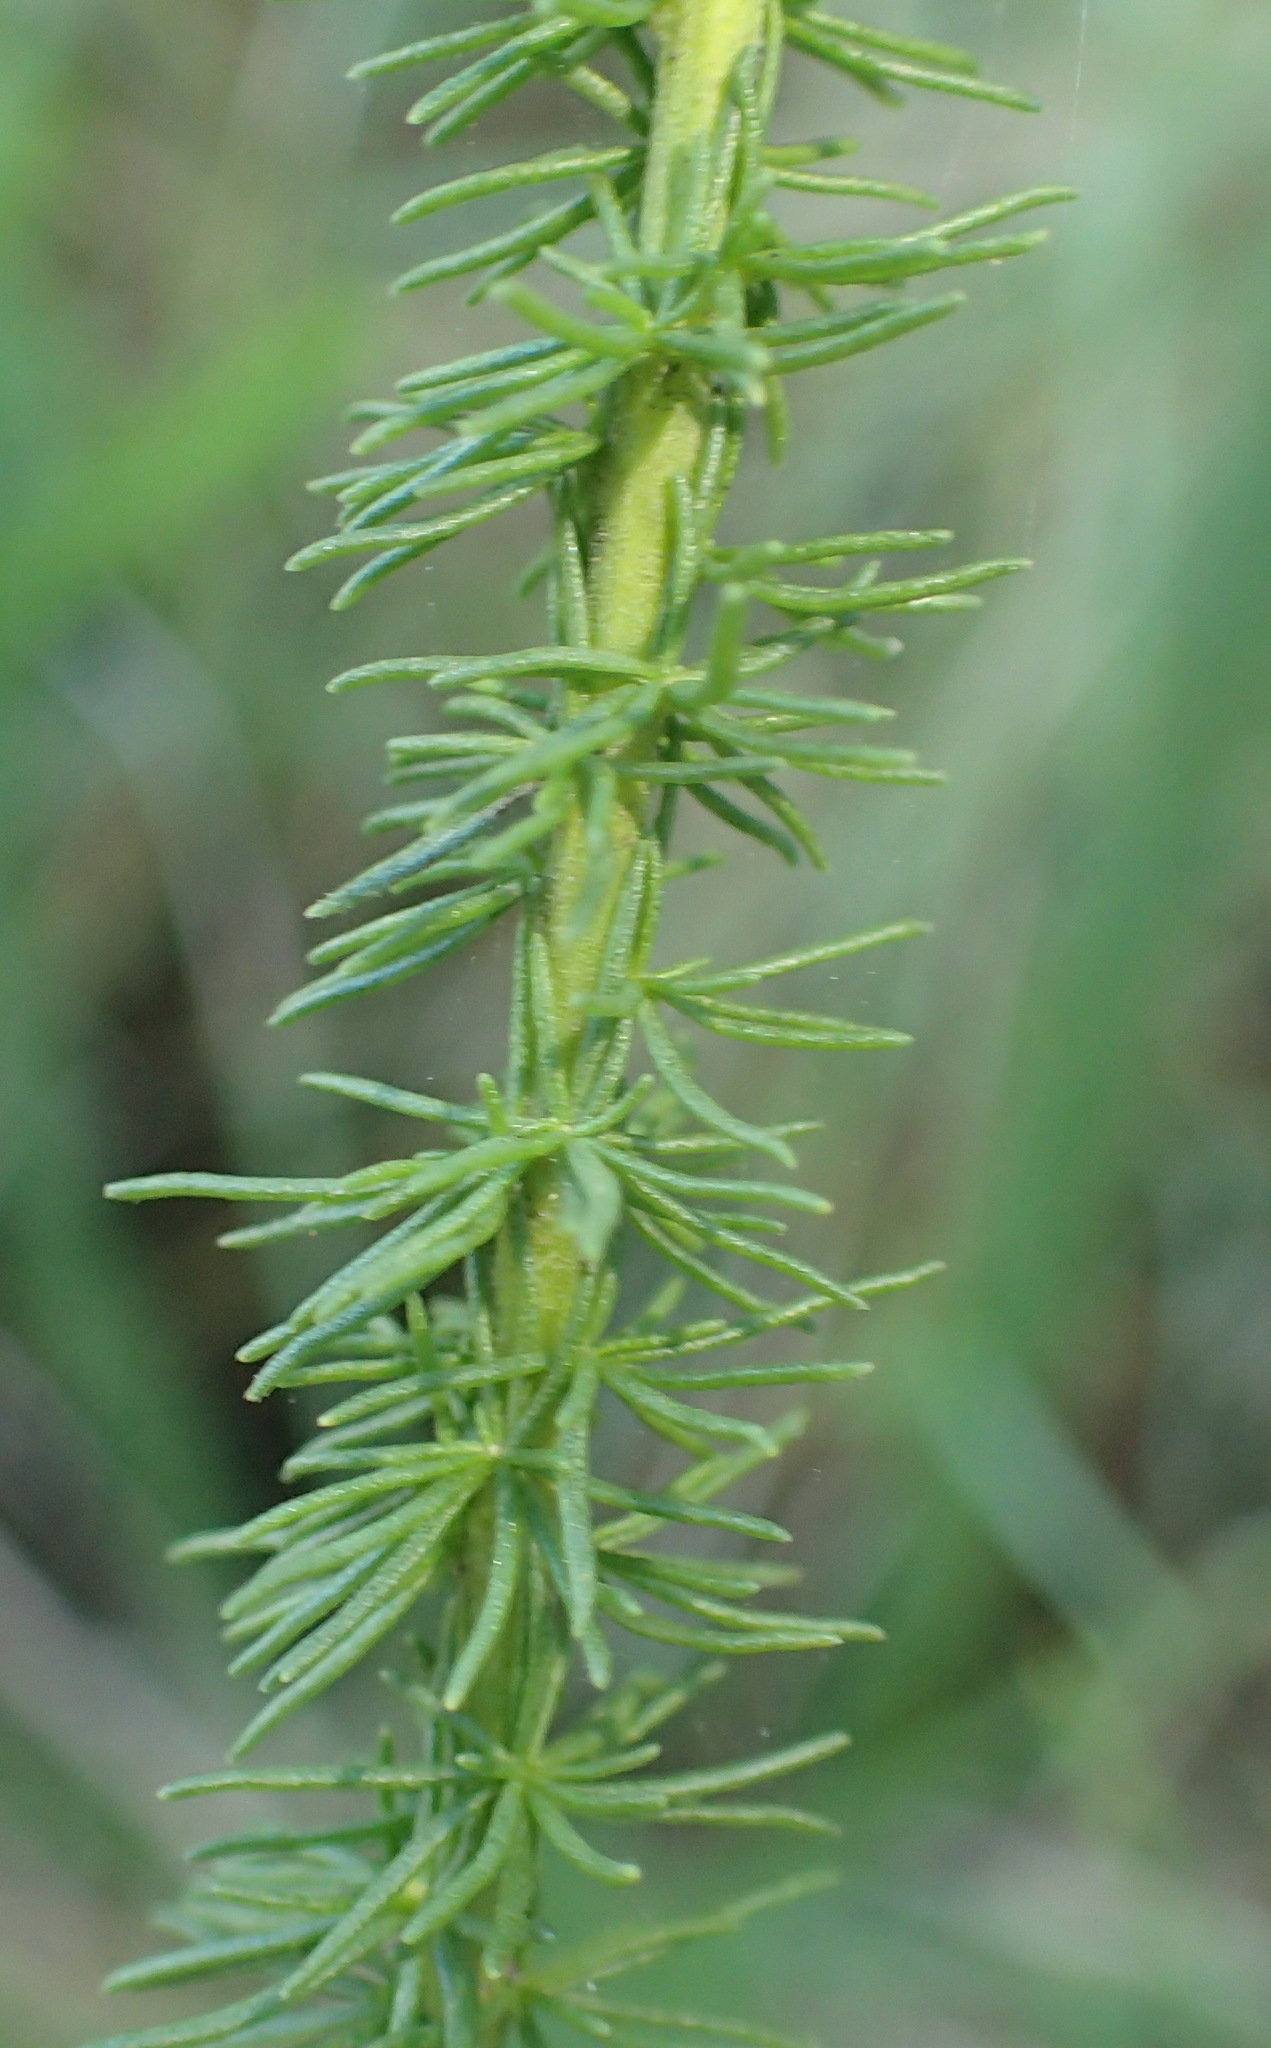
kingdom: Plantae
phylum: Tracheophyta
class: Magnoliopsida
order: Lamiales
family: Scrophulariaceae
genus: Selago
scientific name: Selago corymbosa
